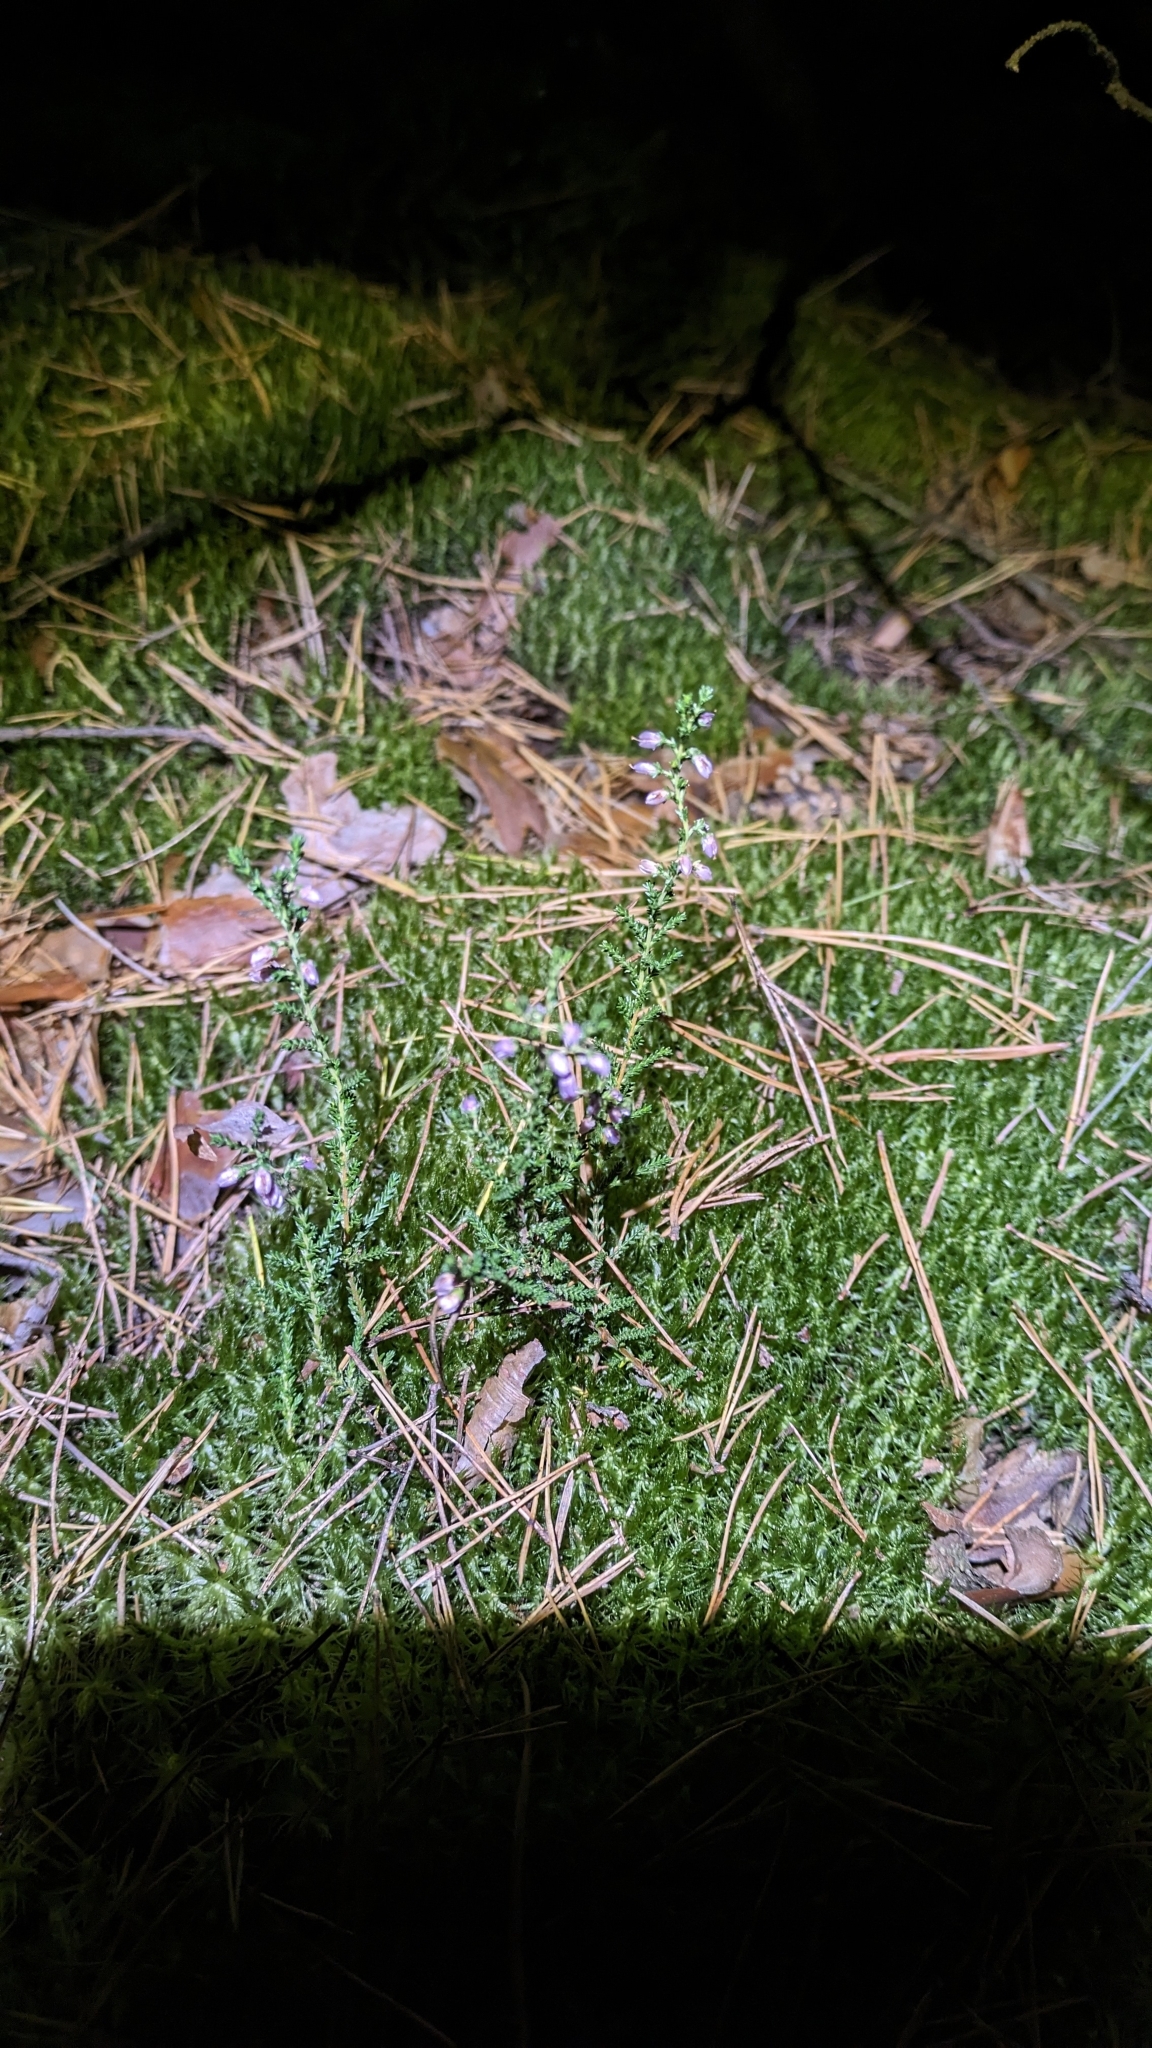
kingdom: Plantae
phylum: Tracheophyta
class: Magnoliopsida
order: Ericales
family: Ericaceae
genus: Calluna
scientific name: Calluna vulgaris
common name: Heather
